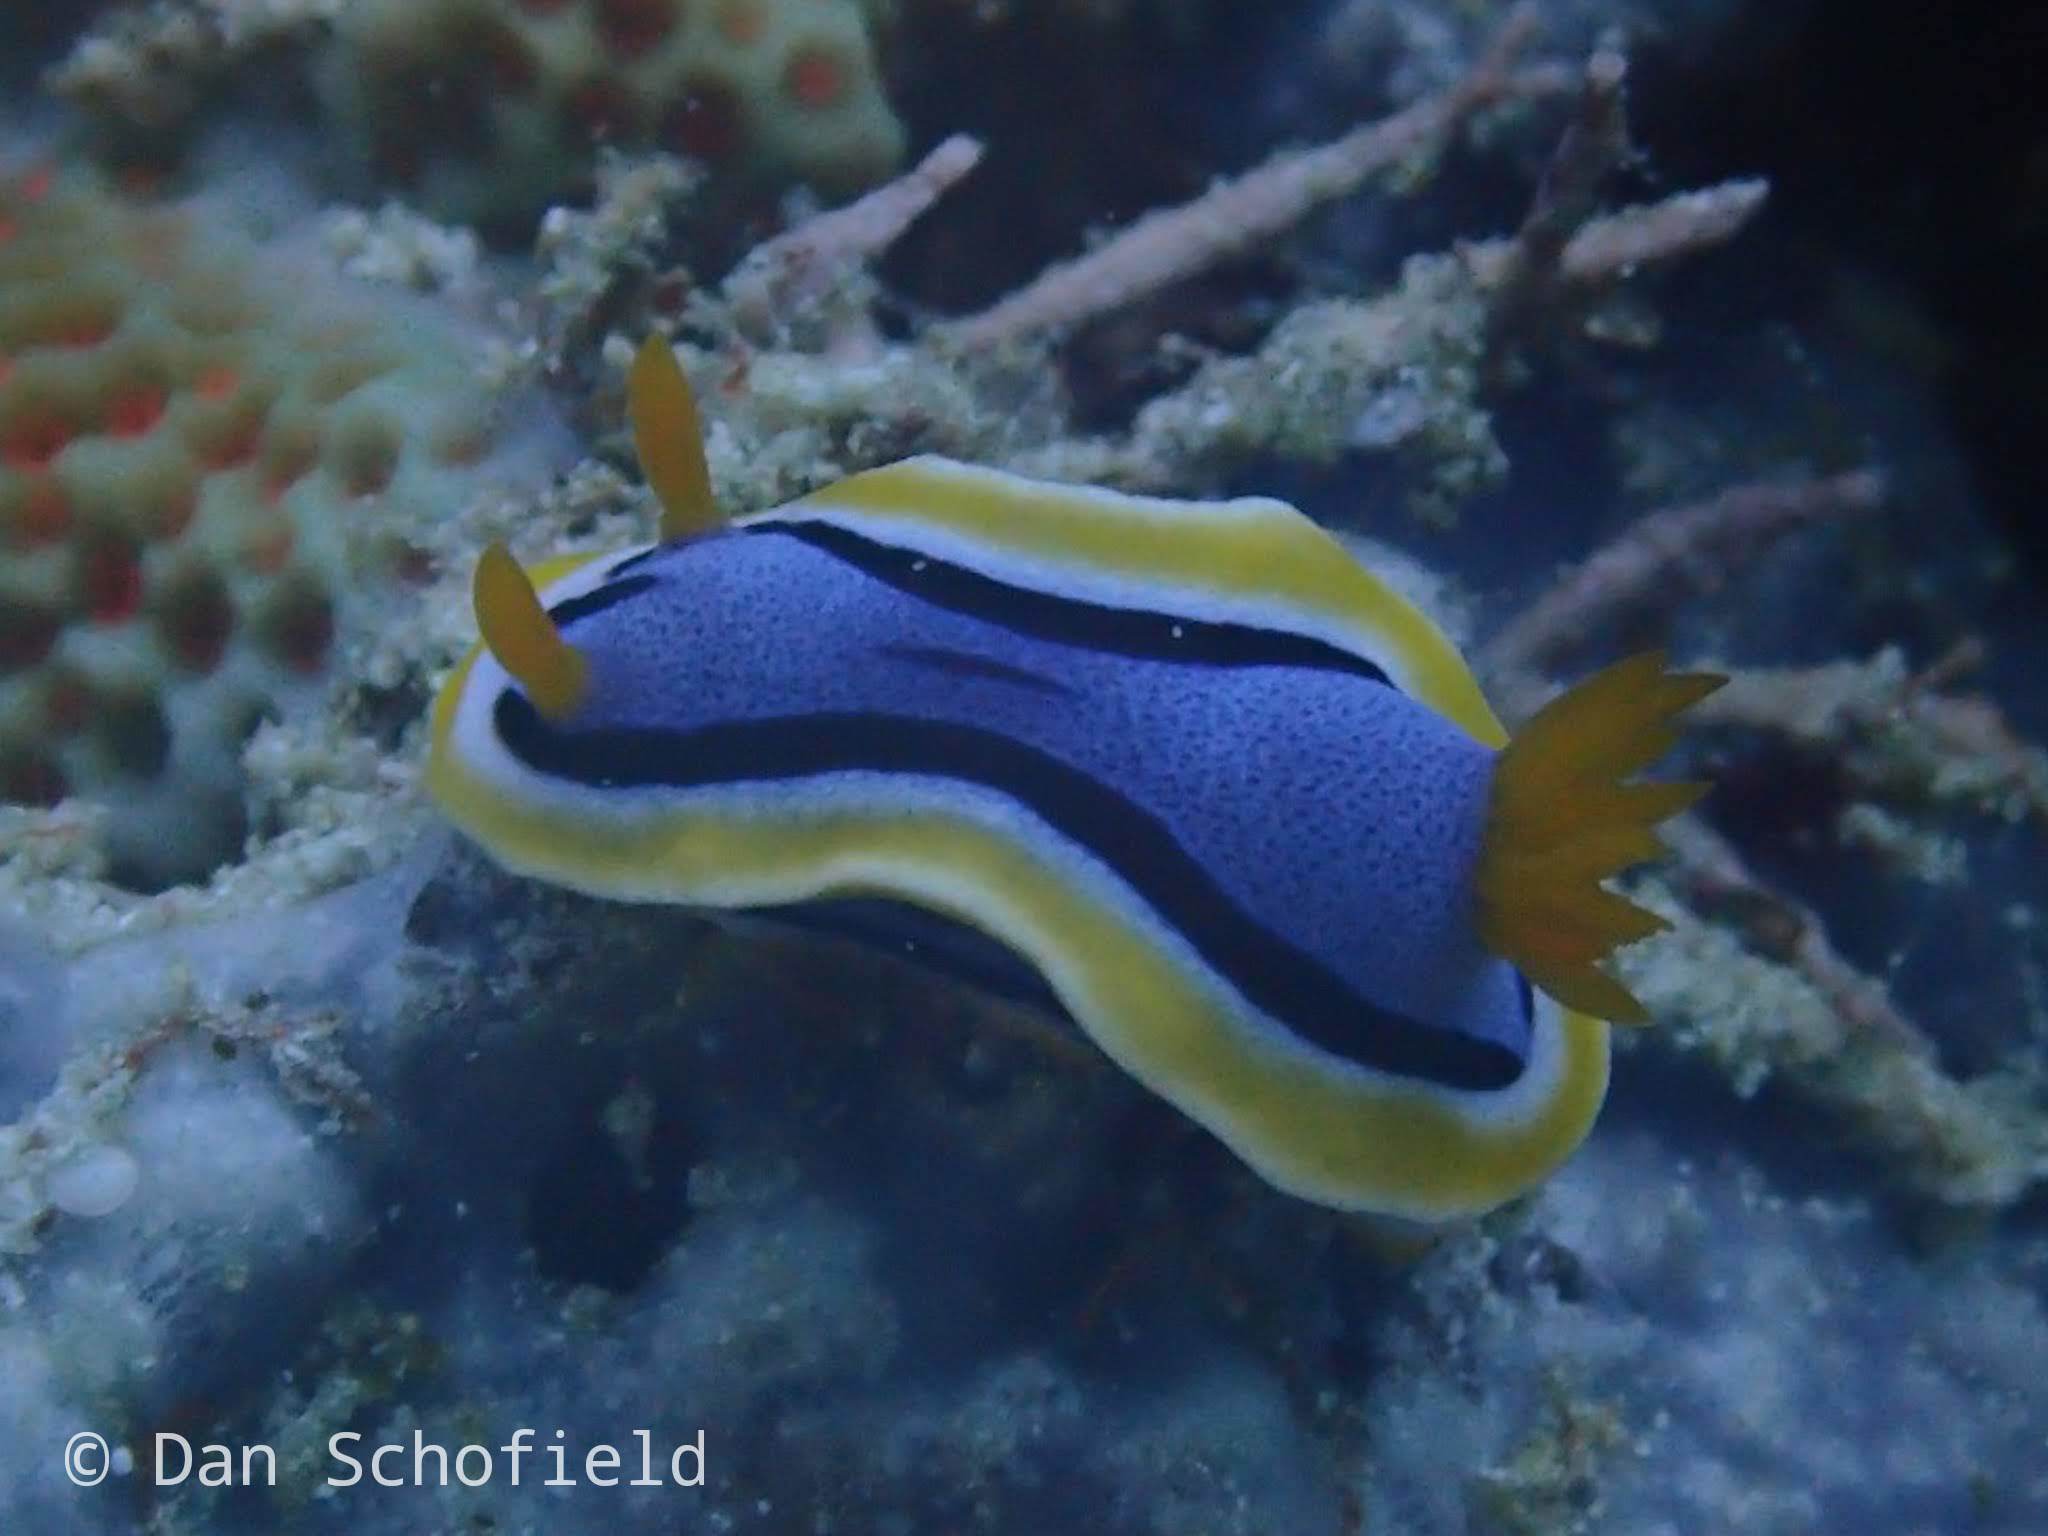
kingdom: Animalia
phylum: Mollusca
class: Gastropoda
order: Nudibranchia
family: Chromodorididae
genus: Chromodoris
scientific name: Chromodoris annae
